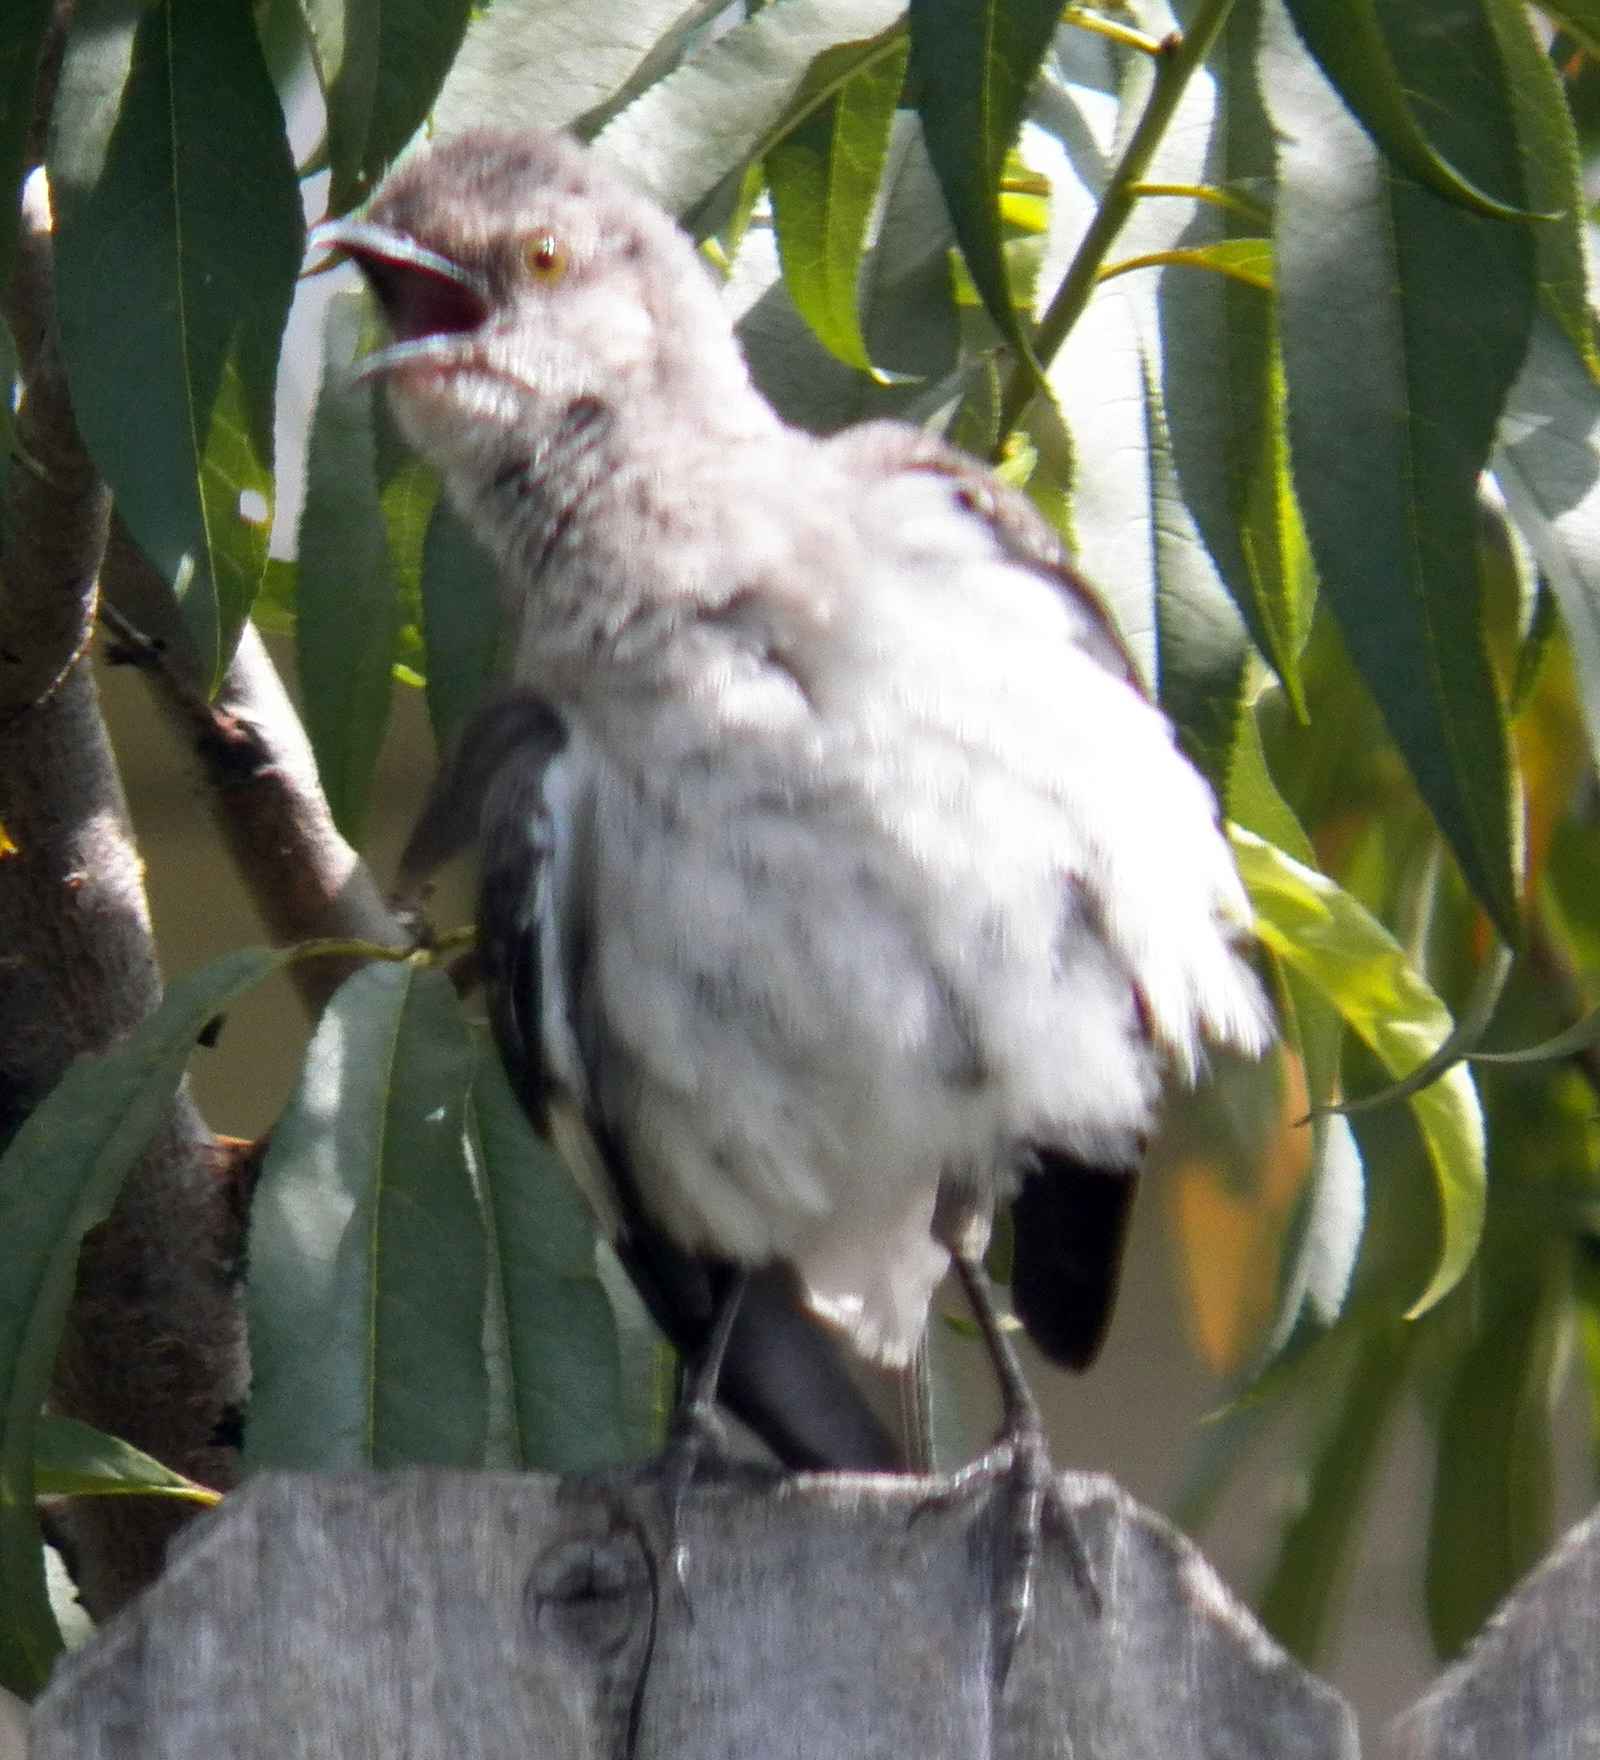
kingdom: Animalia
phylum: Chordata
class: Aves
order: Passeriformes
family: Mimidae
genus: Mimus
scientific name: Mimus polyglottos
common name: Northern mockingbird
